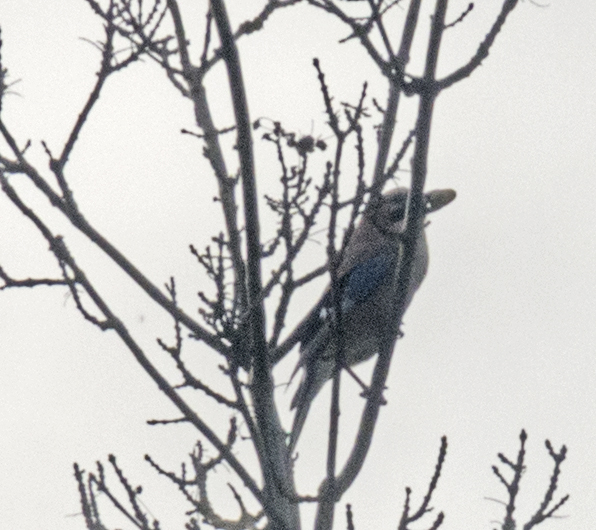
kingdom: Animalia
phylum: Chordata
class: Aves
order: Passeriformes
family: Corvidae
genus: Garrulus
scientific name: Garrulus glandarius
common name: Eurasian jay
